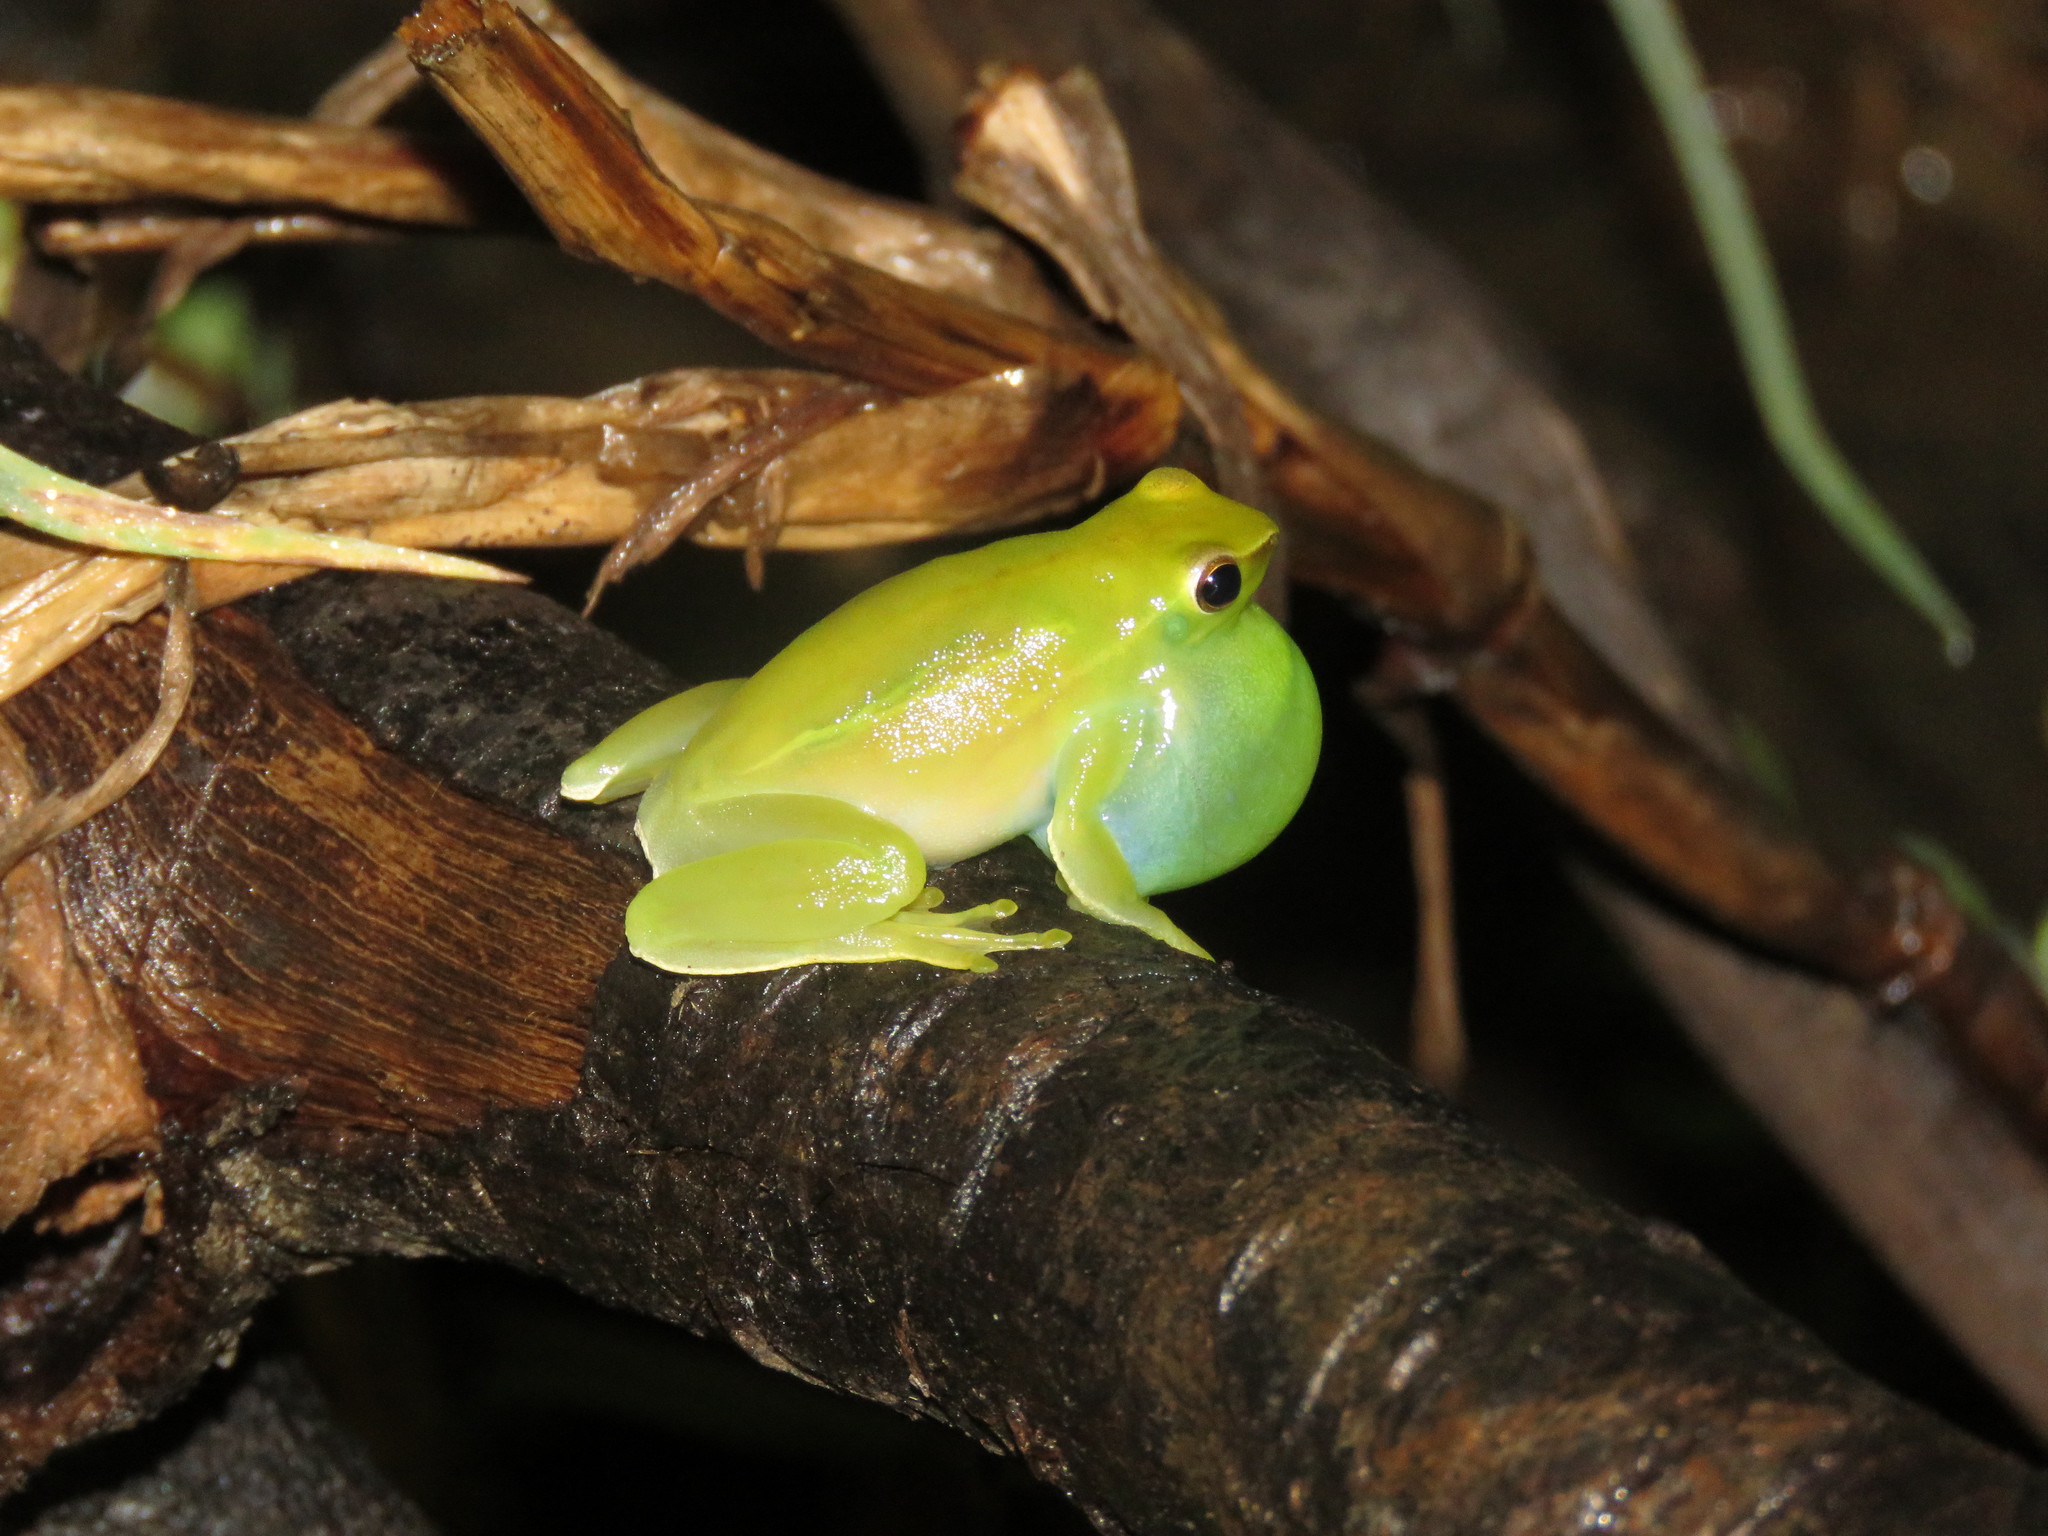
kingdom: Animalia
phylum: Chordata
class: Amphibia
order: Anura
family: Hylidae
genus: Sphaenorhynchus
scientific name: Sphaenorhynchus lacteus
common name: Orinoco lime treefrog
